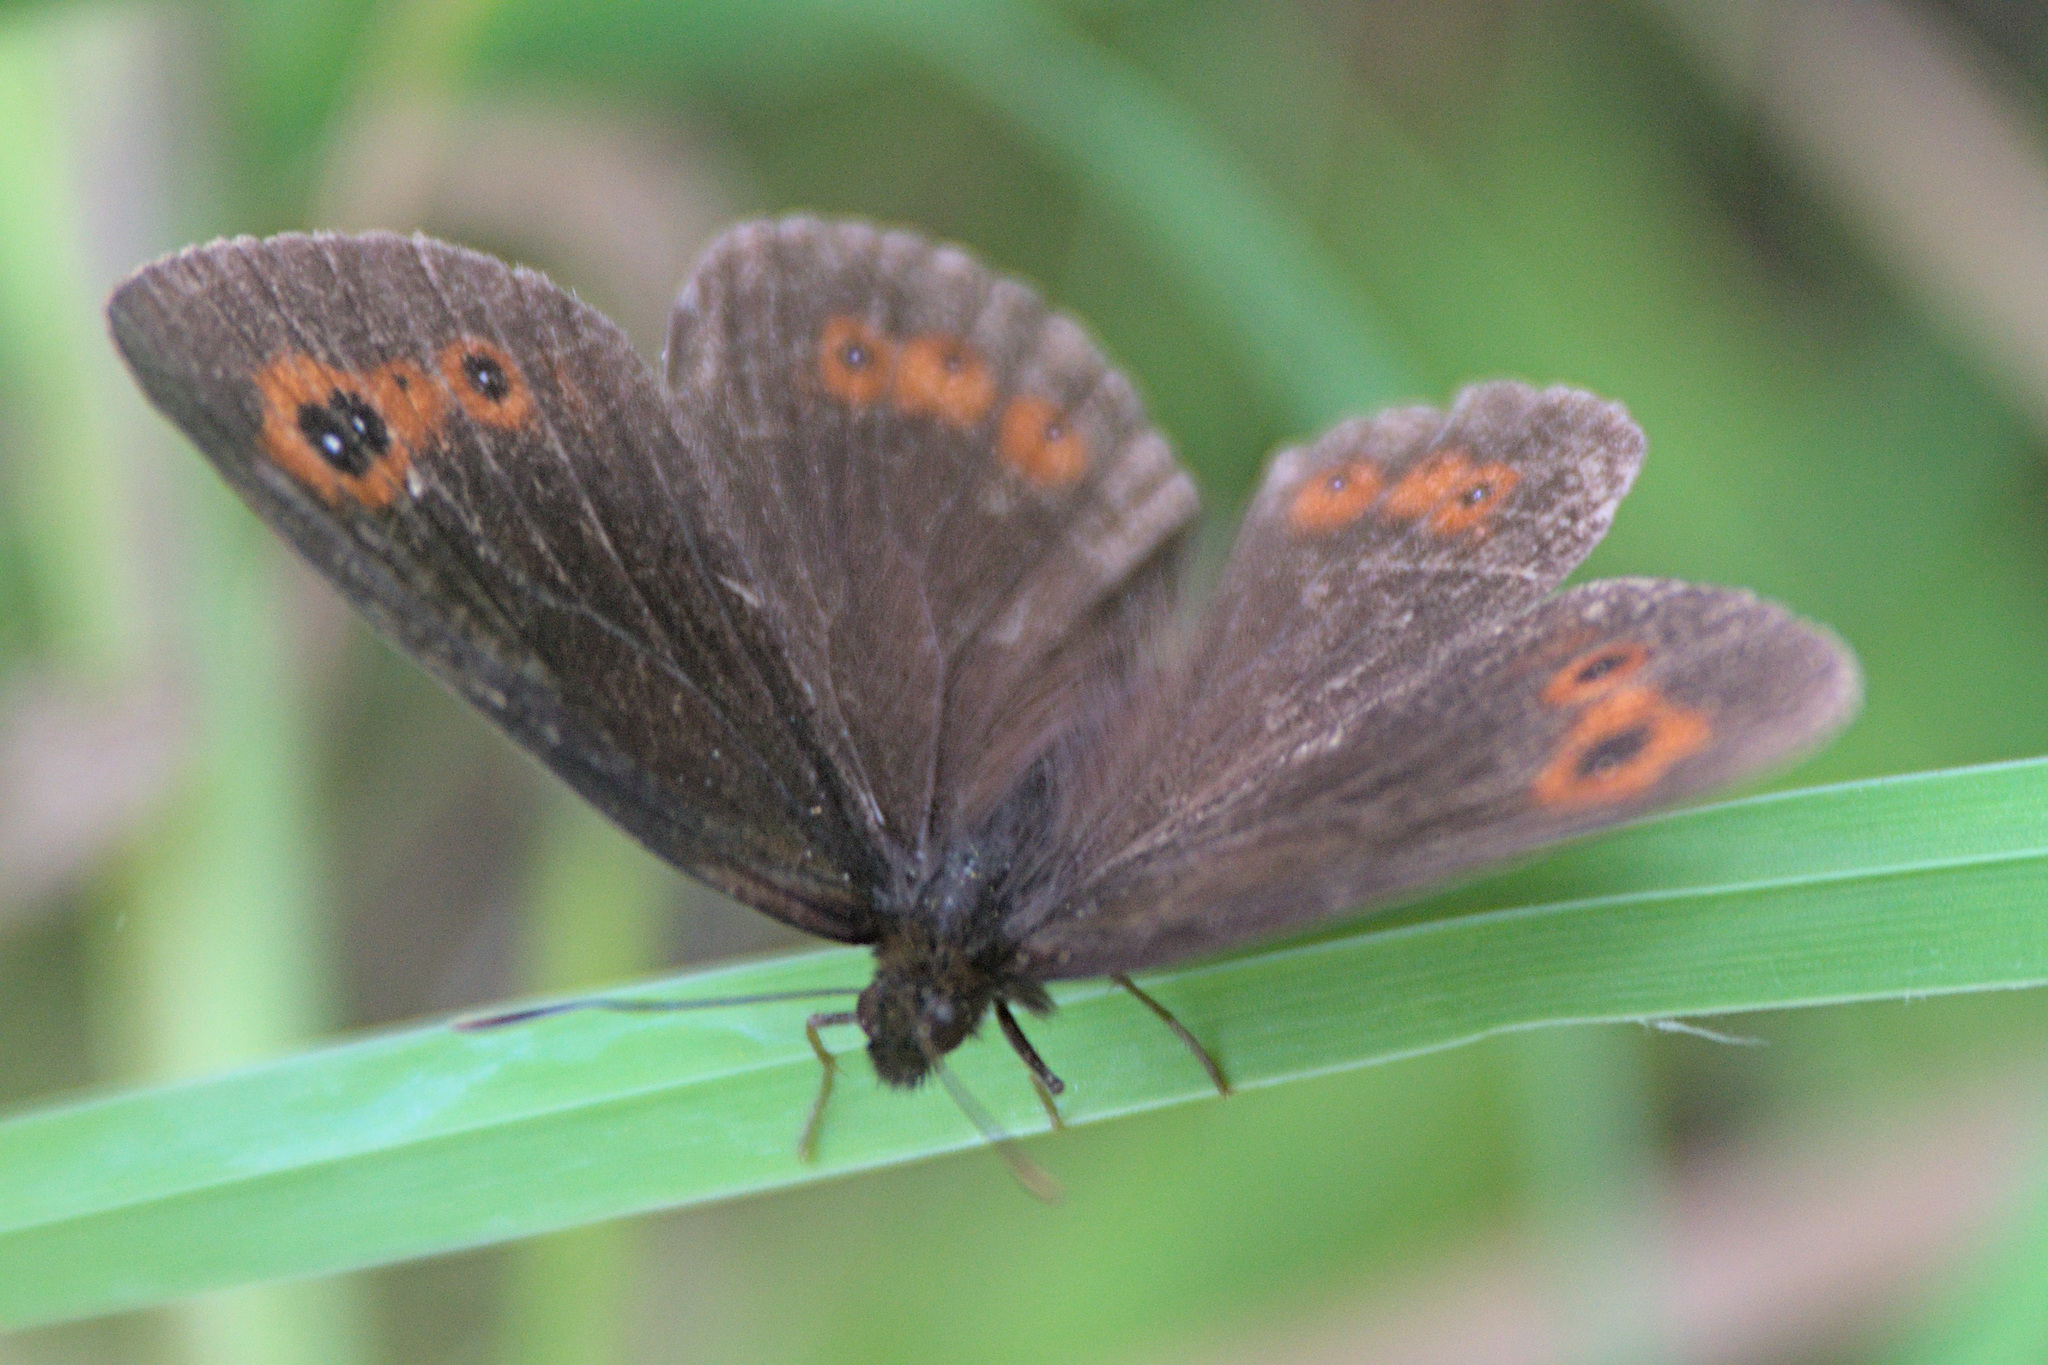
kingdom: Animalia
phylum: Arthropoda
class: Insecta
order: Lepidoptera
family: Nymphalidae
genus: Erebia
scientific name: Erebia aethiops
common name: Scotch argus
